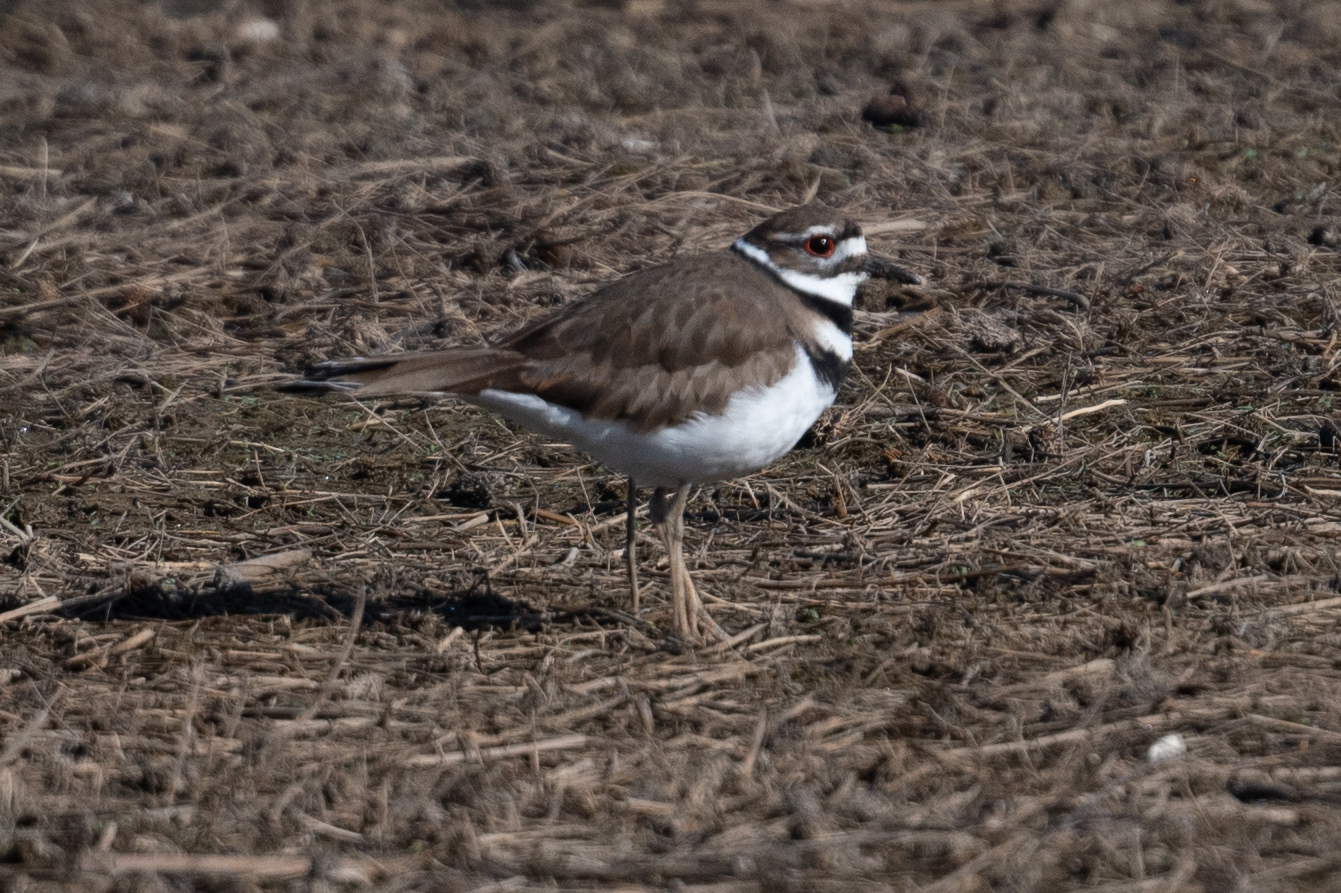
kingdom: Animalia
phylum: Chordata
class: Aves
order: Charadriiformes
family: Charadriidae
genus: Charadrius
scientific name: Charadrius vociferus
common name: Killdeer
